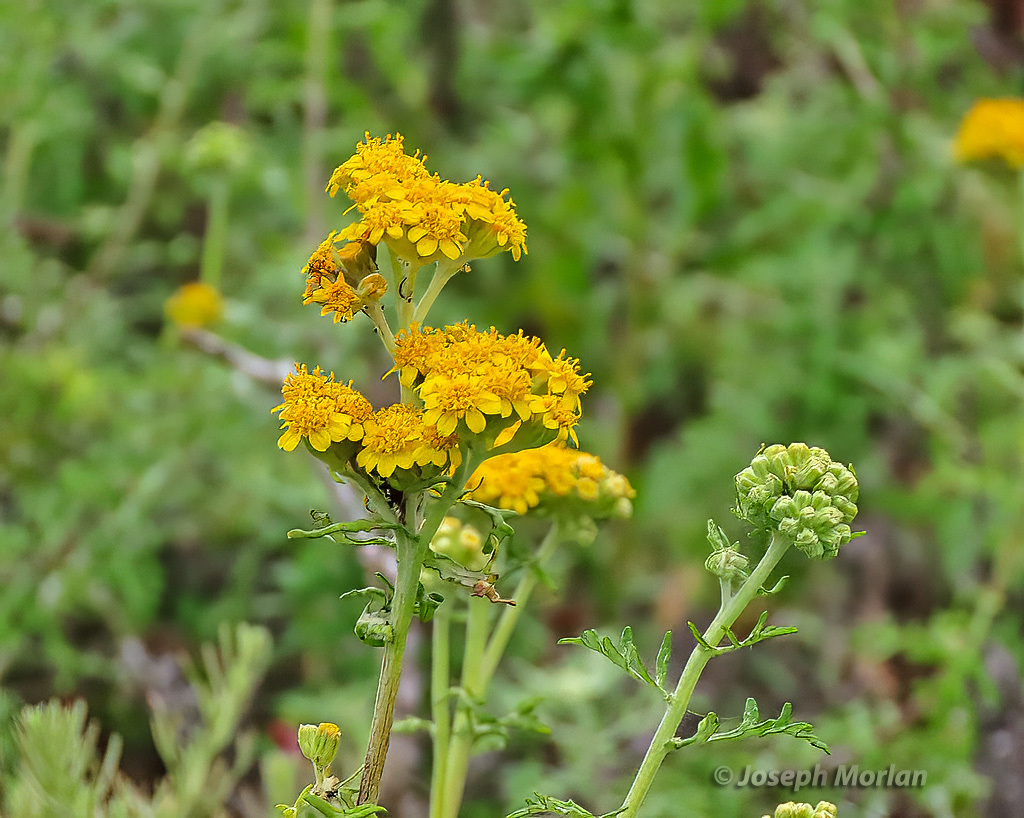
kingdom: Plantae
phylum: Tracheophyta
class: Magnoliopsida
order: Asterales
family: Asteraceae
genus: Eriophyllum
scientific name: Eriophyllum staechadifolium
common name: Lizardtail
